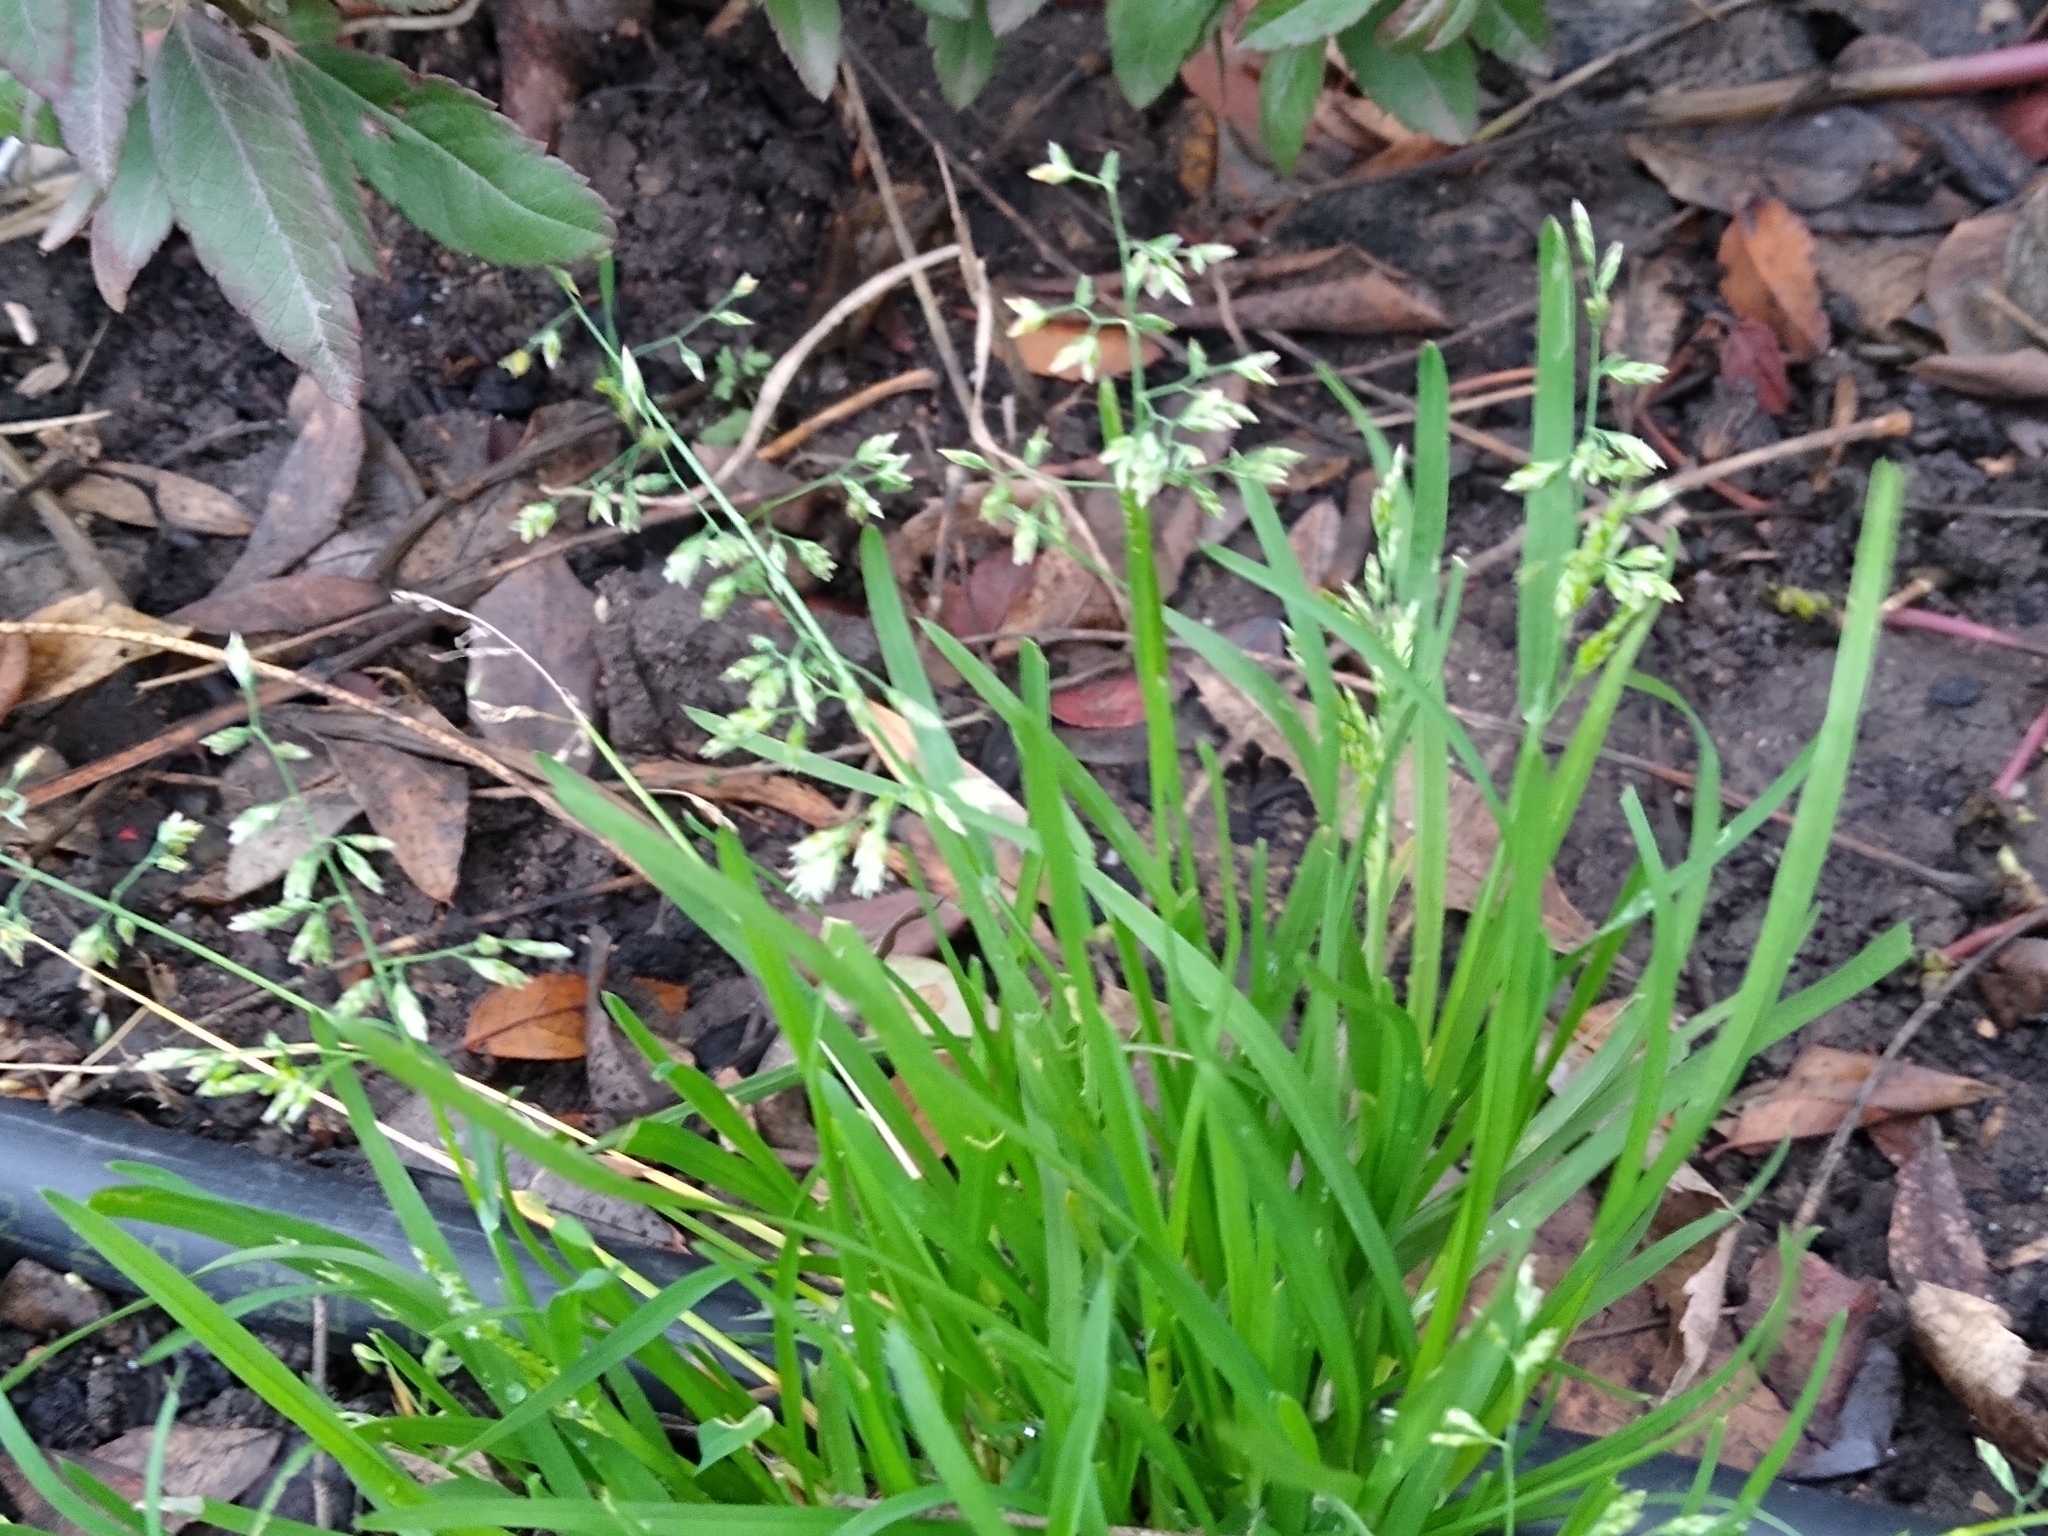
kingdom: Plantae
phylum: Tracheophyta
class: Liliopsida
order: Poales
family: Poaceae
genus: Poa
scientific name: Poa annua
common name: Annual bluegrass
